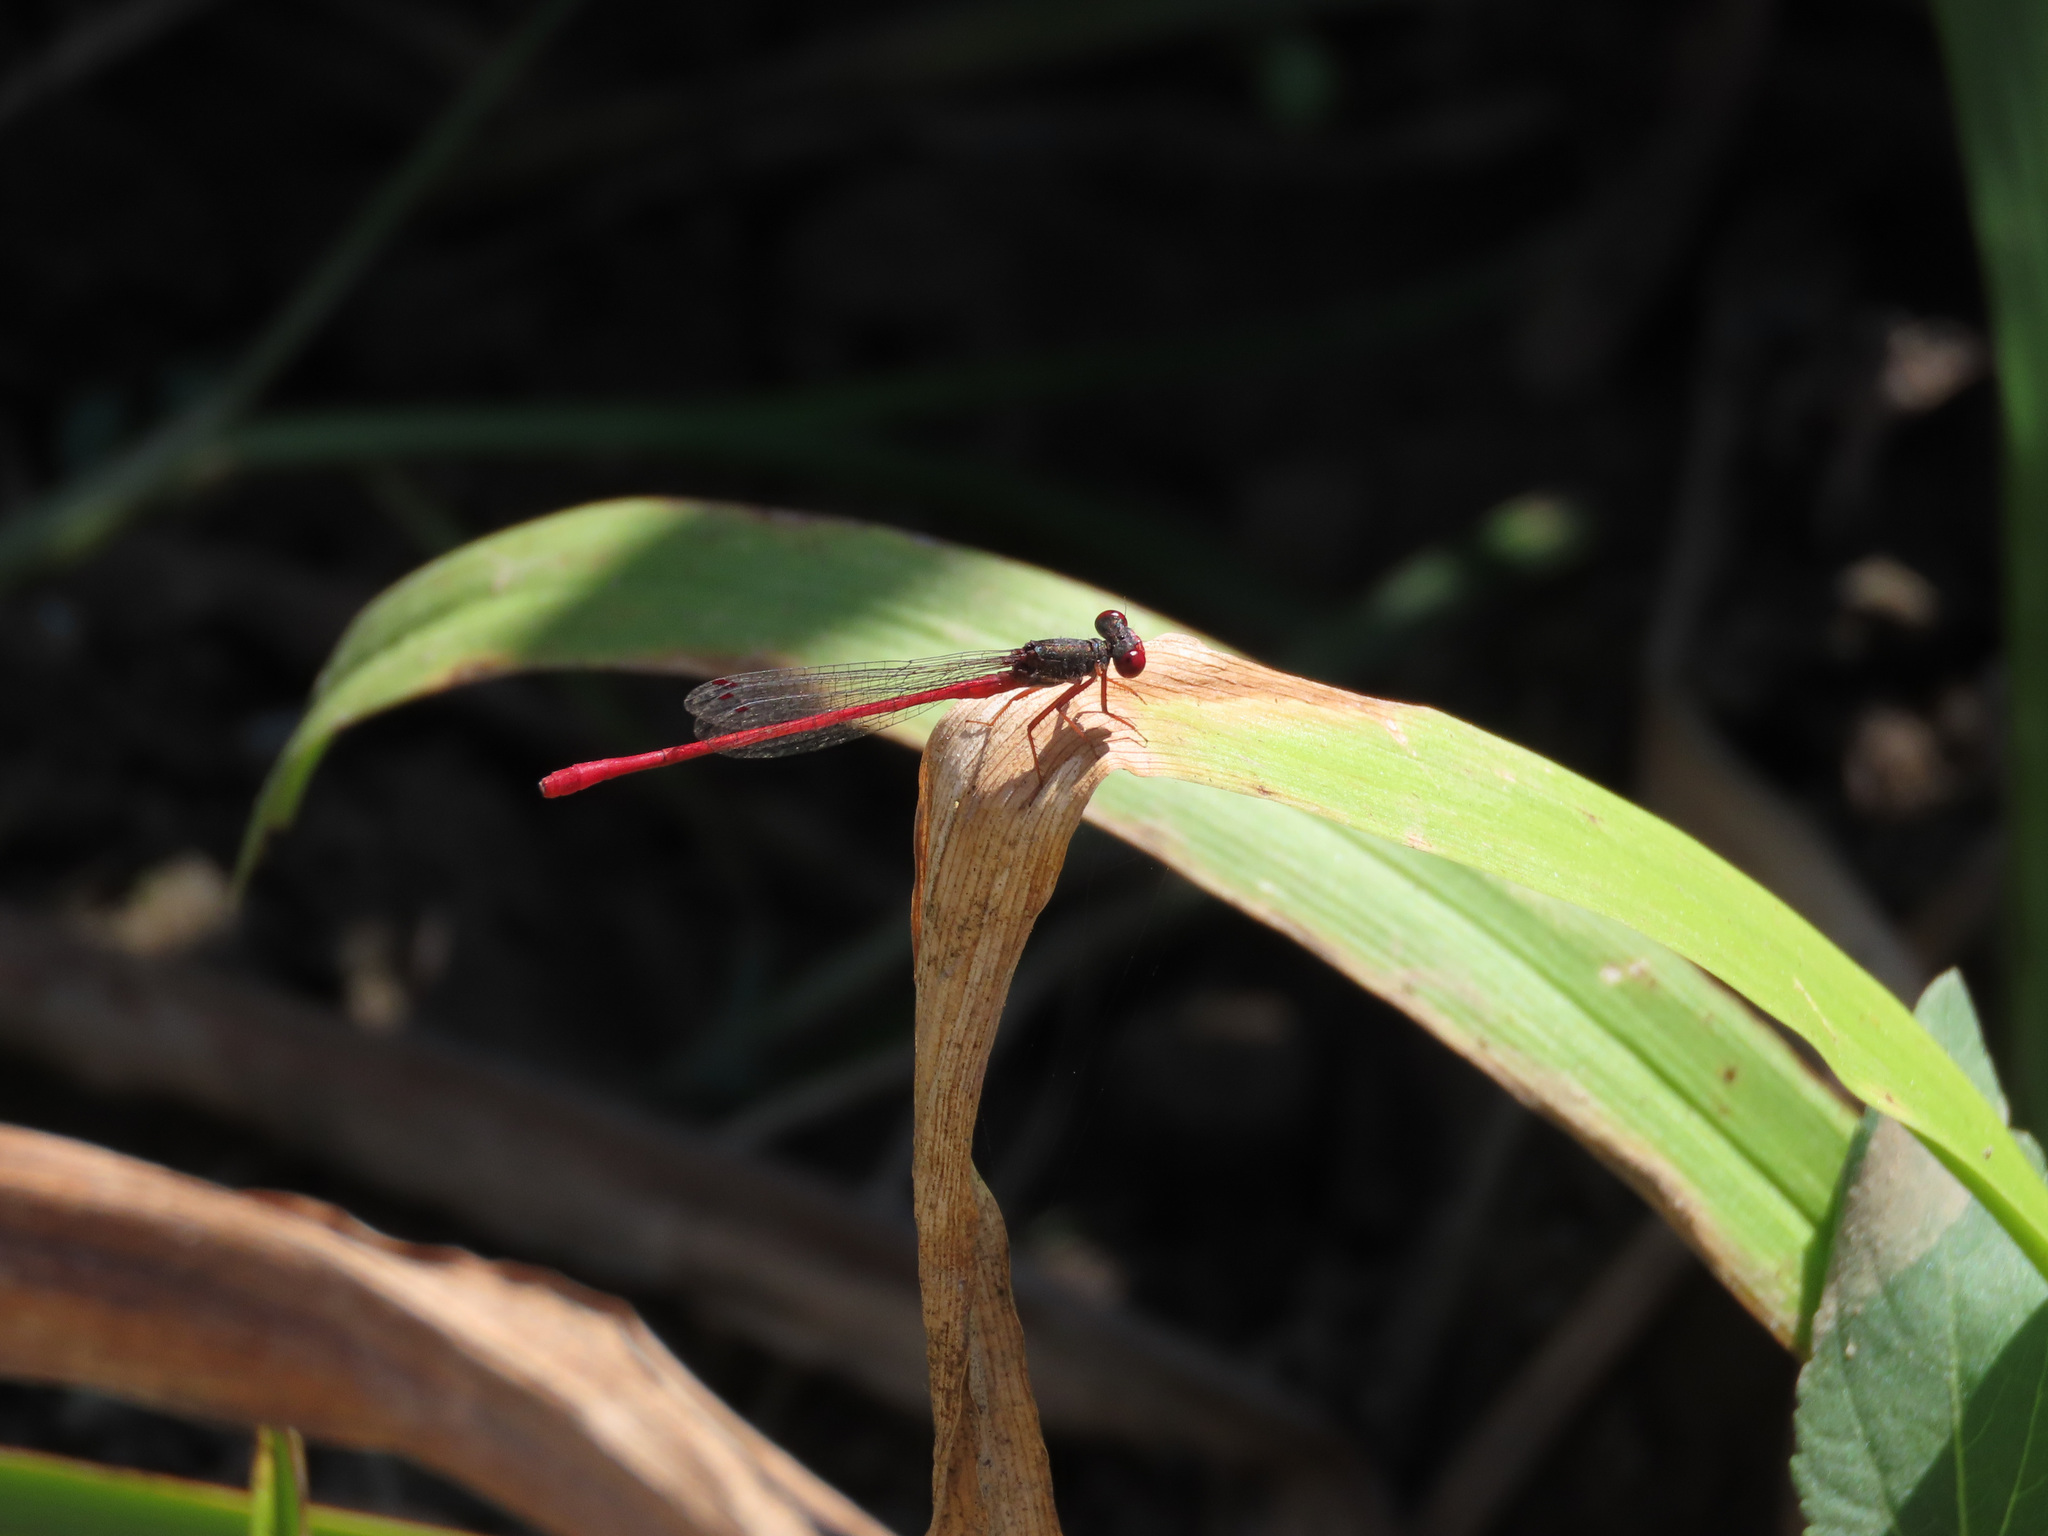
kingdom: Animalia
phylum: Arthropoda
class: Insecta
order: Odonata
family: Coenagrionidae
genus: Ceriagrion
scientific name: Ceriagrion tenellum
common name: Small red damselfly
